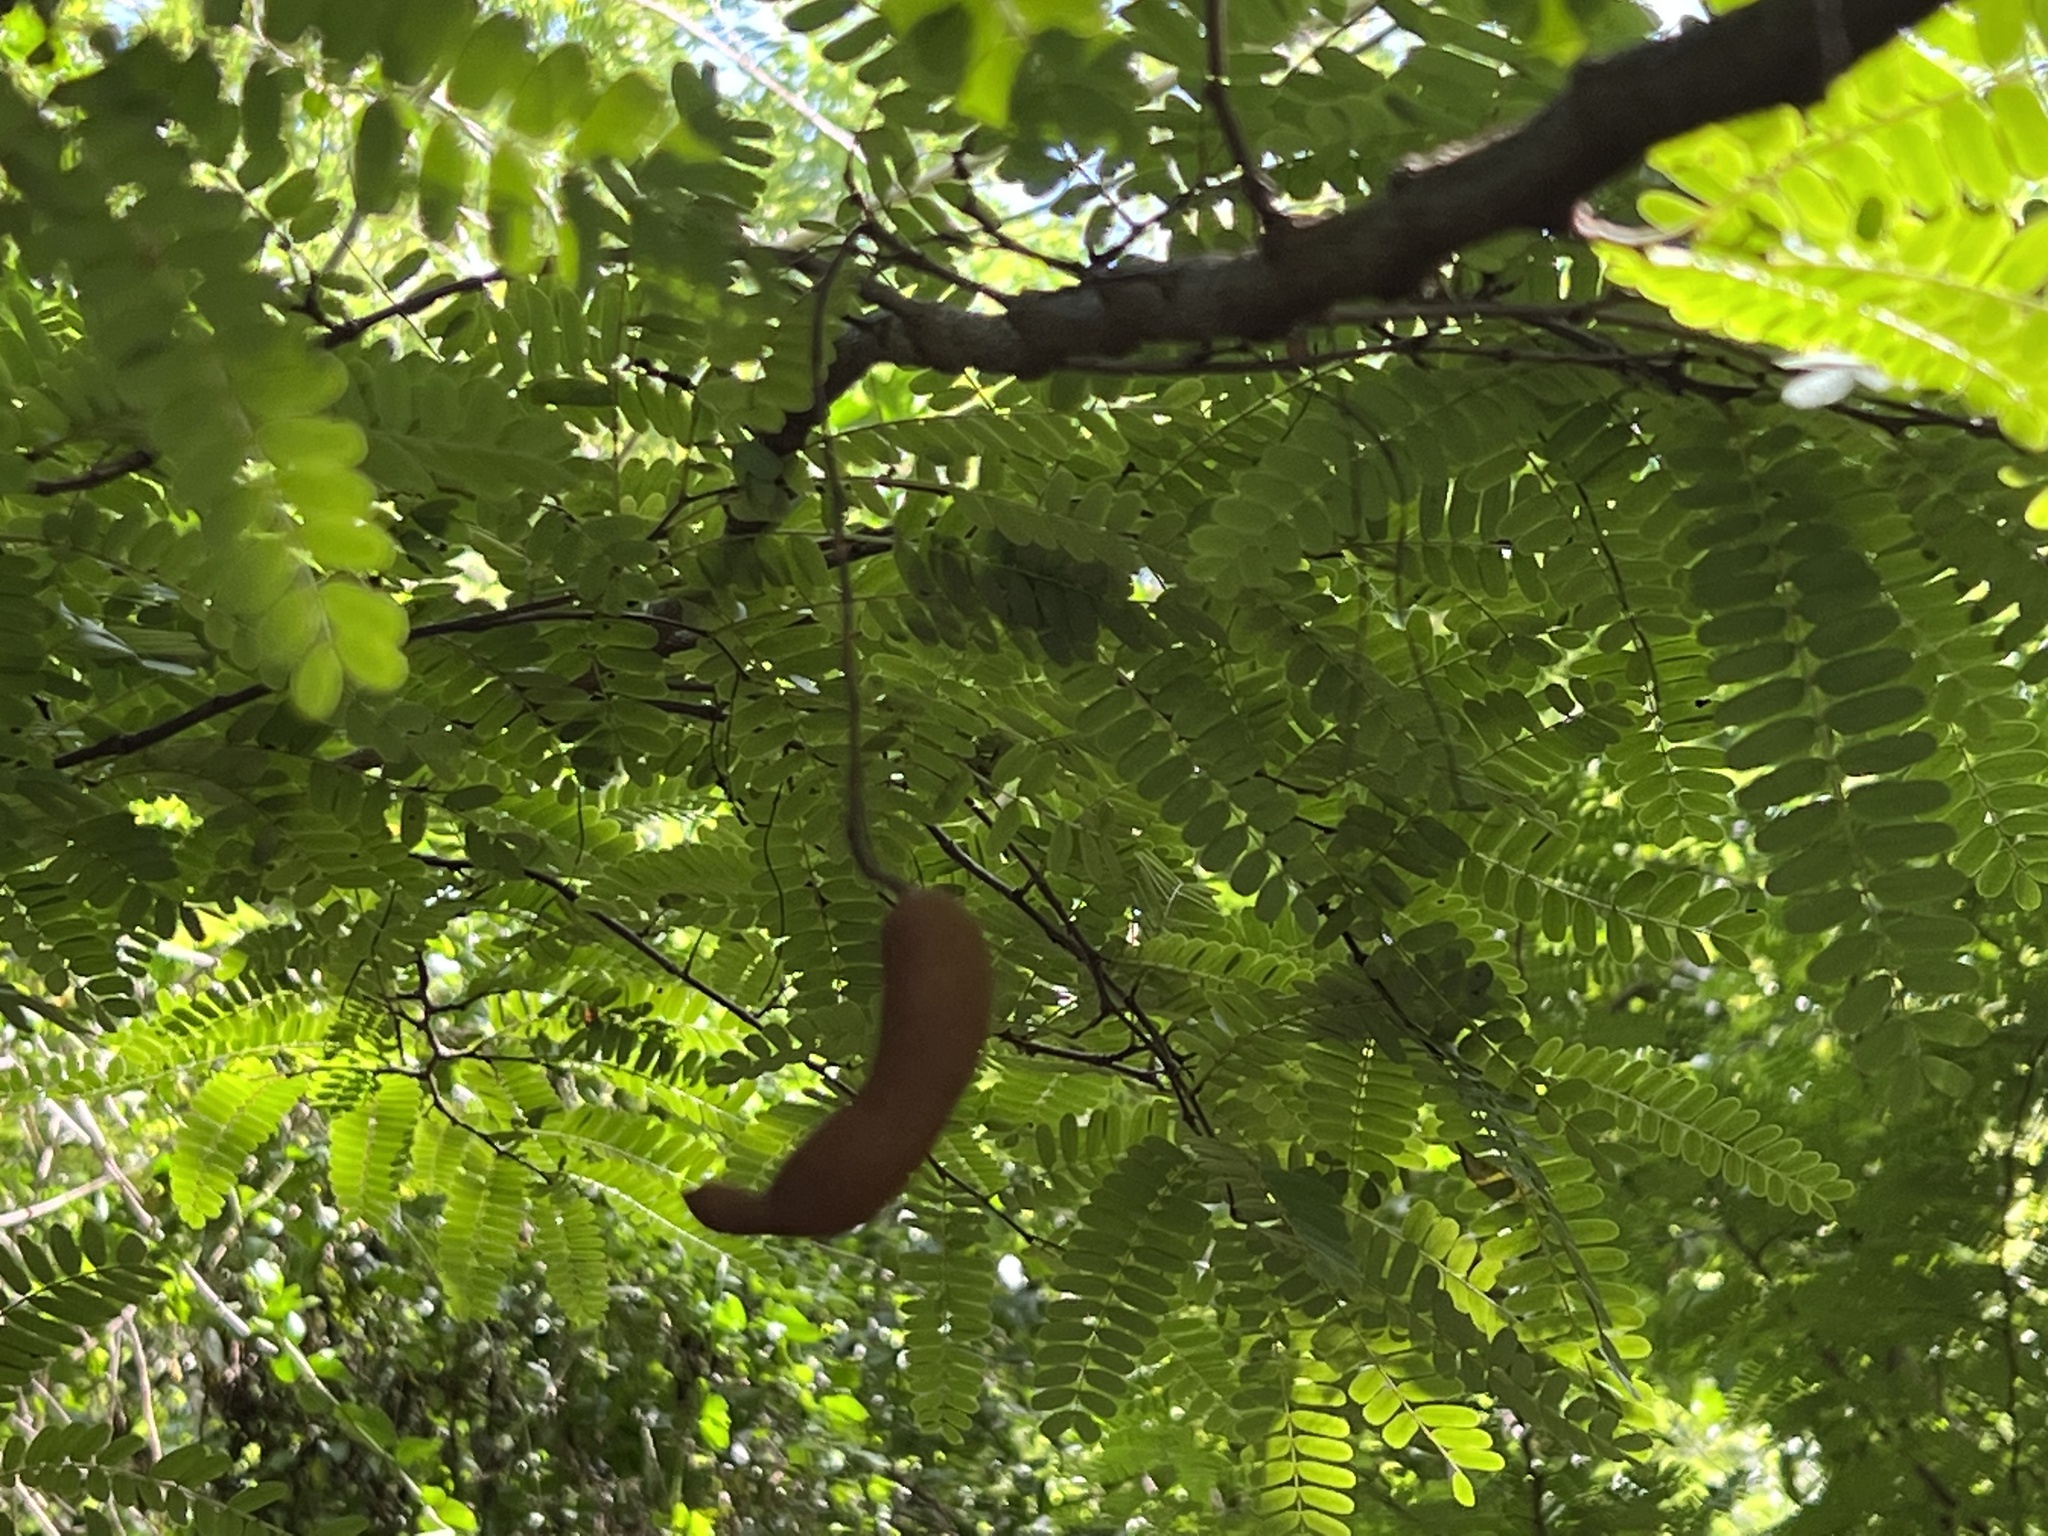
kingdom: Plantae
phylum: Tracheophyta
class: Magnoliopsida
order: Fabales
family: Fabaceae
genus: Tamarindus
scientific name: Tamarindus indica
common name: Tamarind
